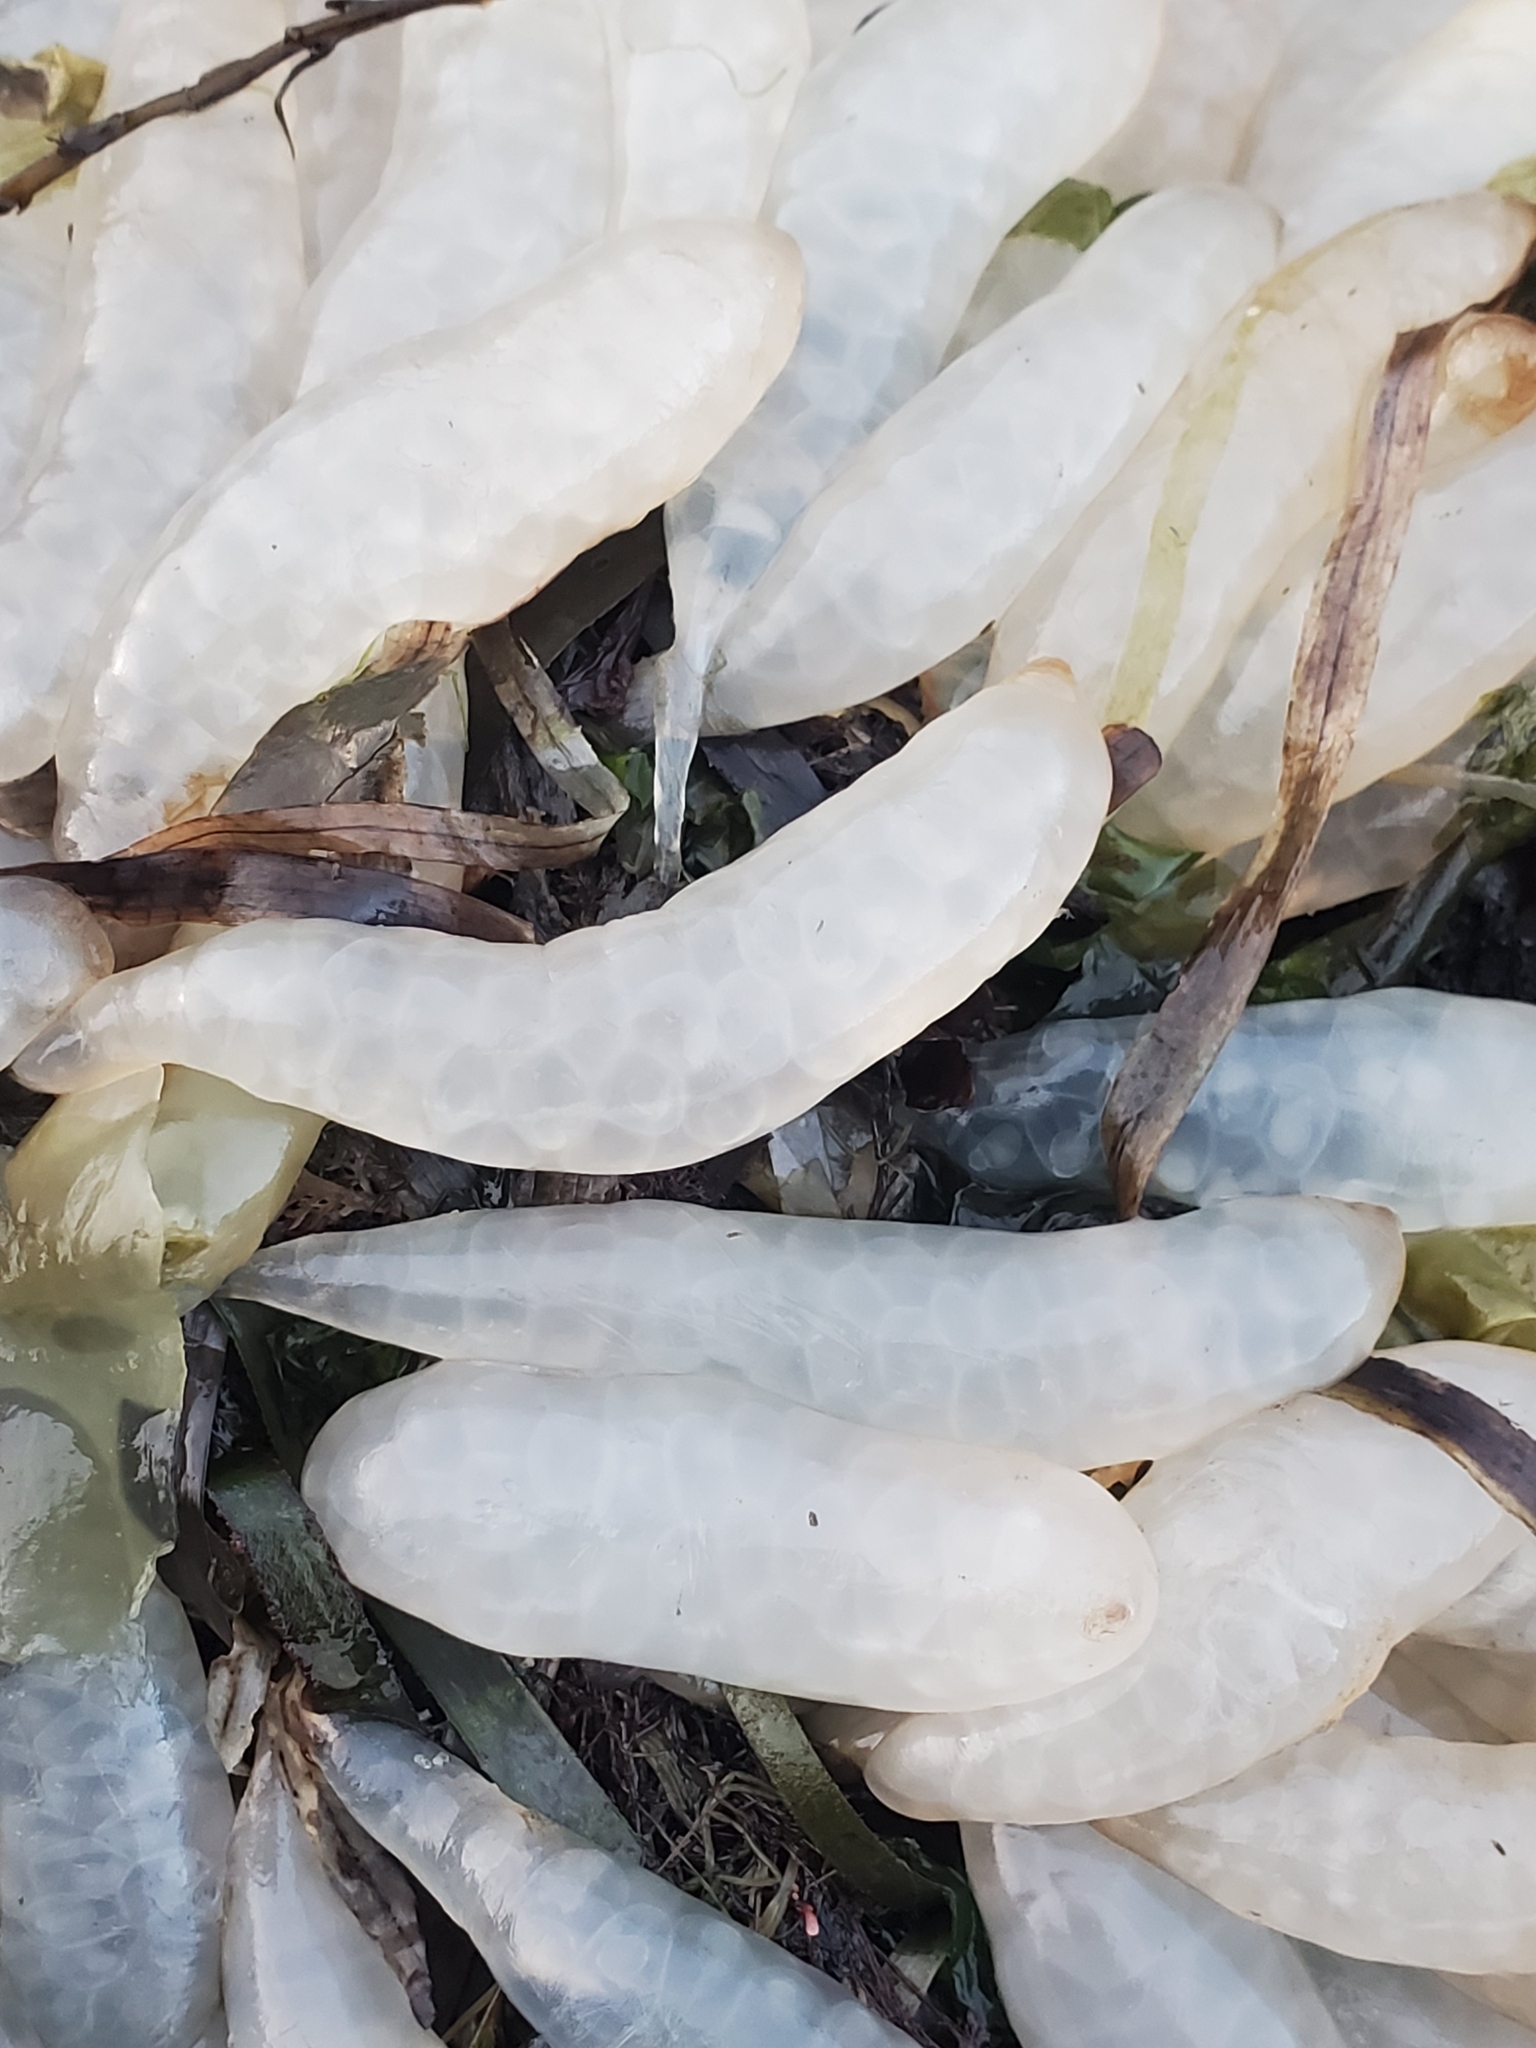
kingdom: Animalia
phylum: Mollusca
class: Cephalopoda
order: Myopsida
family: Loliginidae
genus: Doryteuthis
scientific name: Doryteuthis opalescens
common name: Opalescent inshore squid
